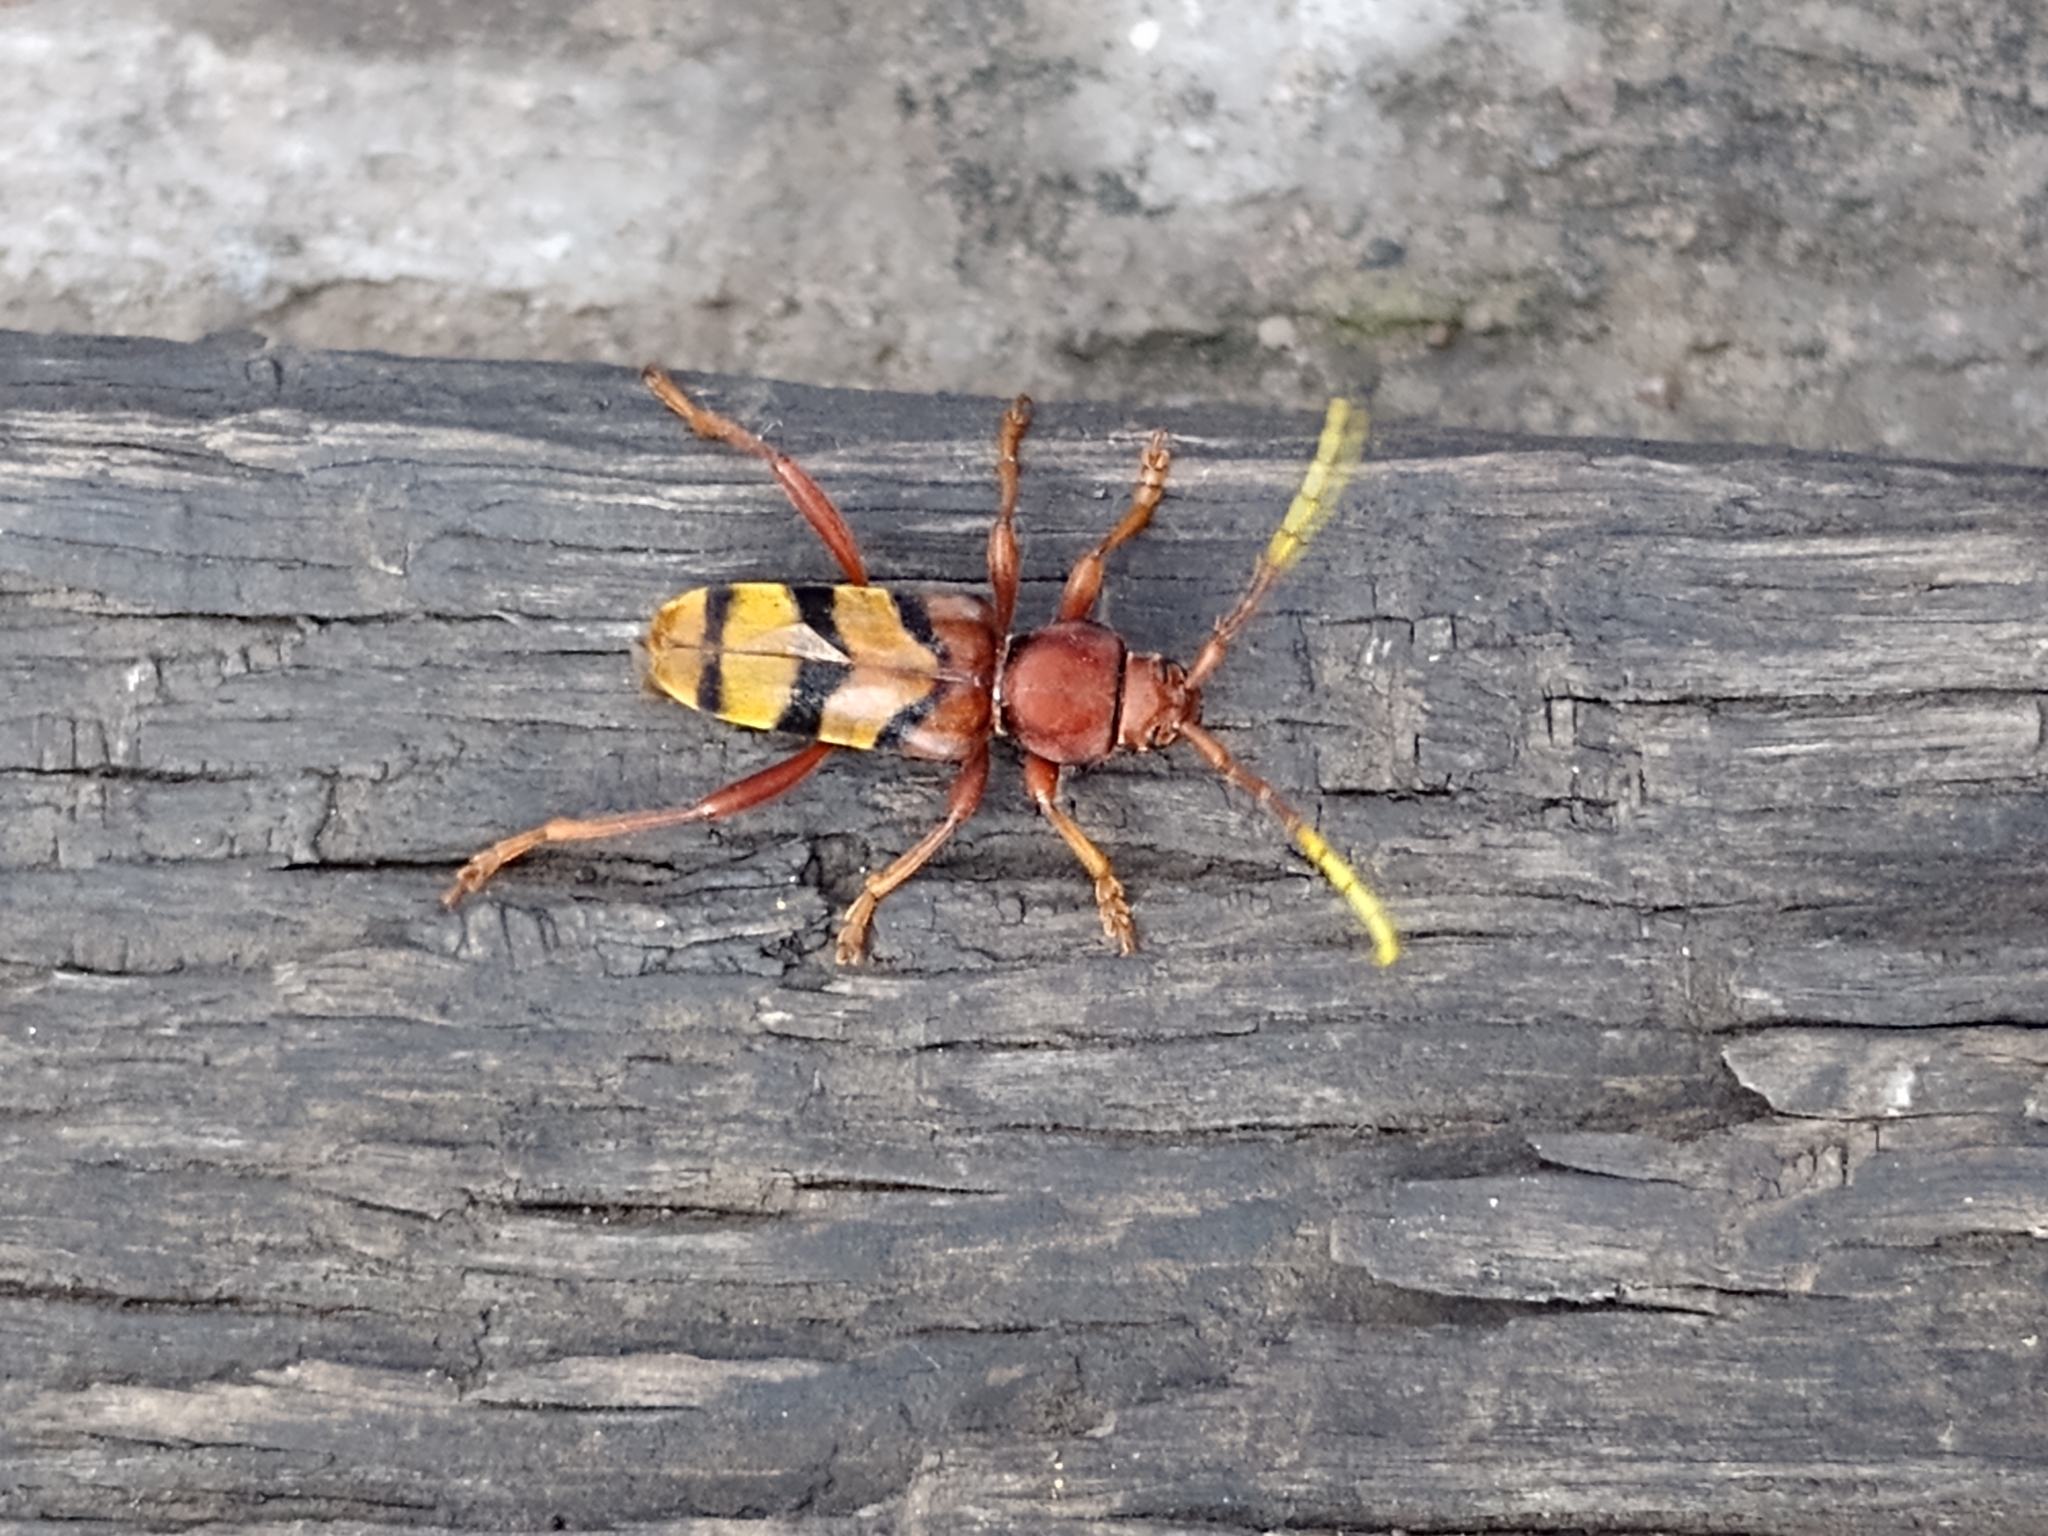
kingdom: Animalia
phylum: Arthropoda
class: Insecta
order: Coleoptera
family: Cerambycidae
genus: Dexithea
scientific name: Dexithea klugii
